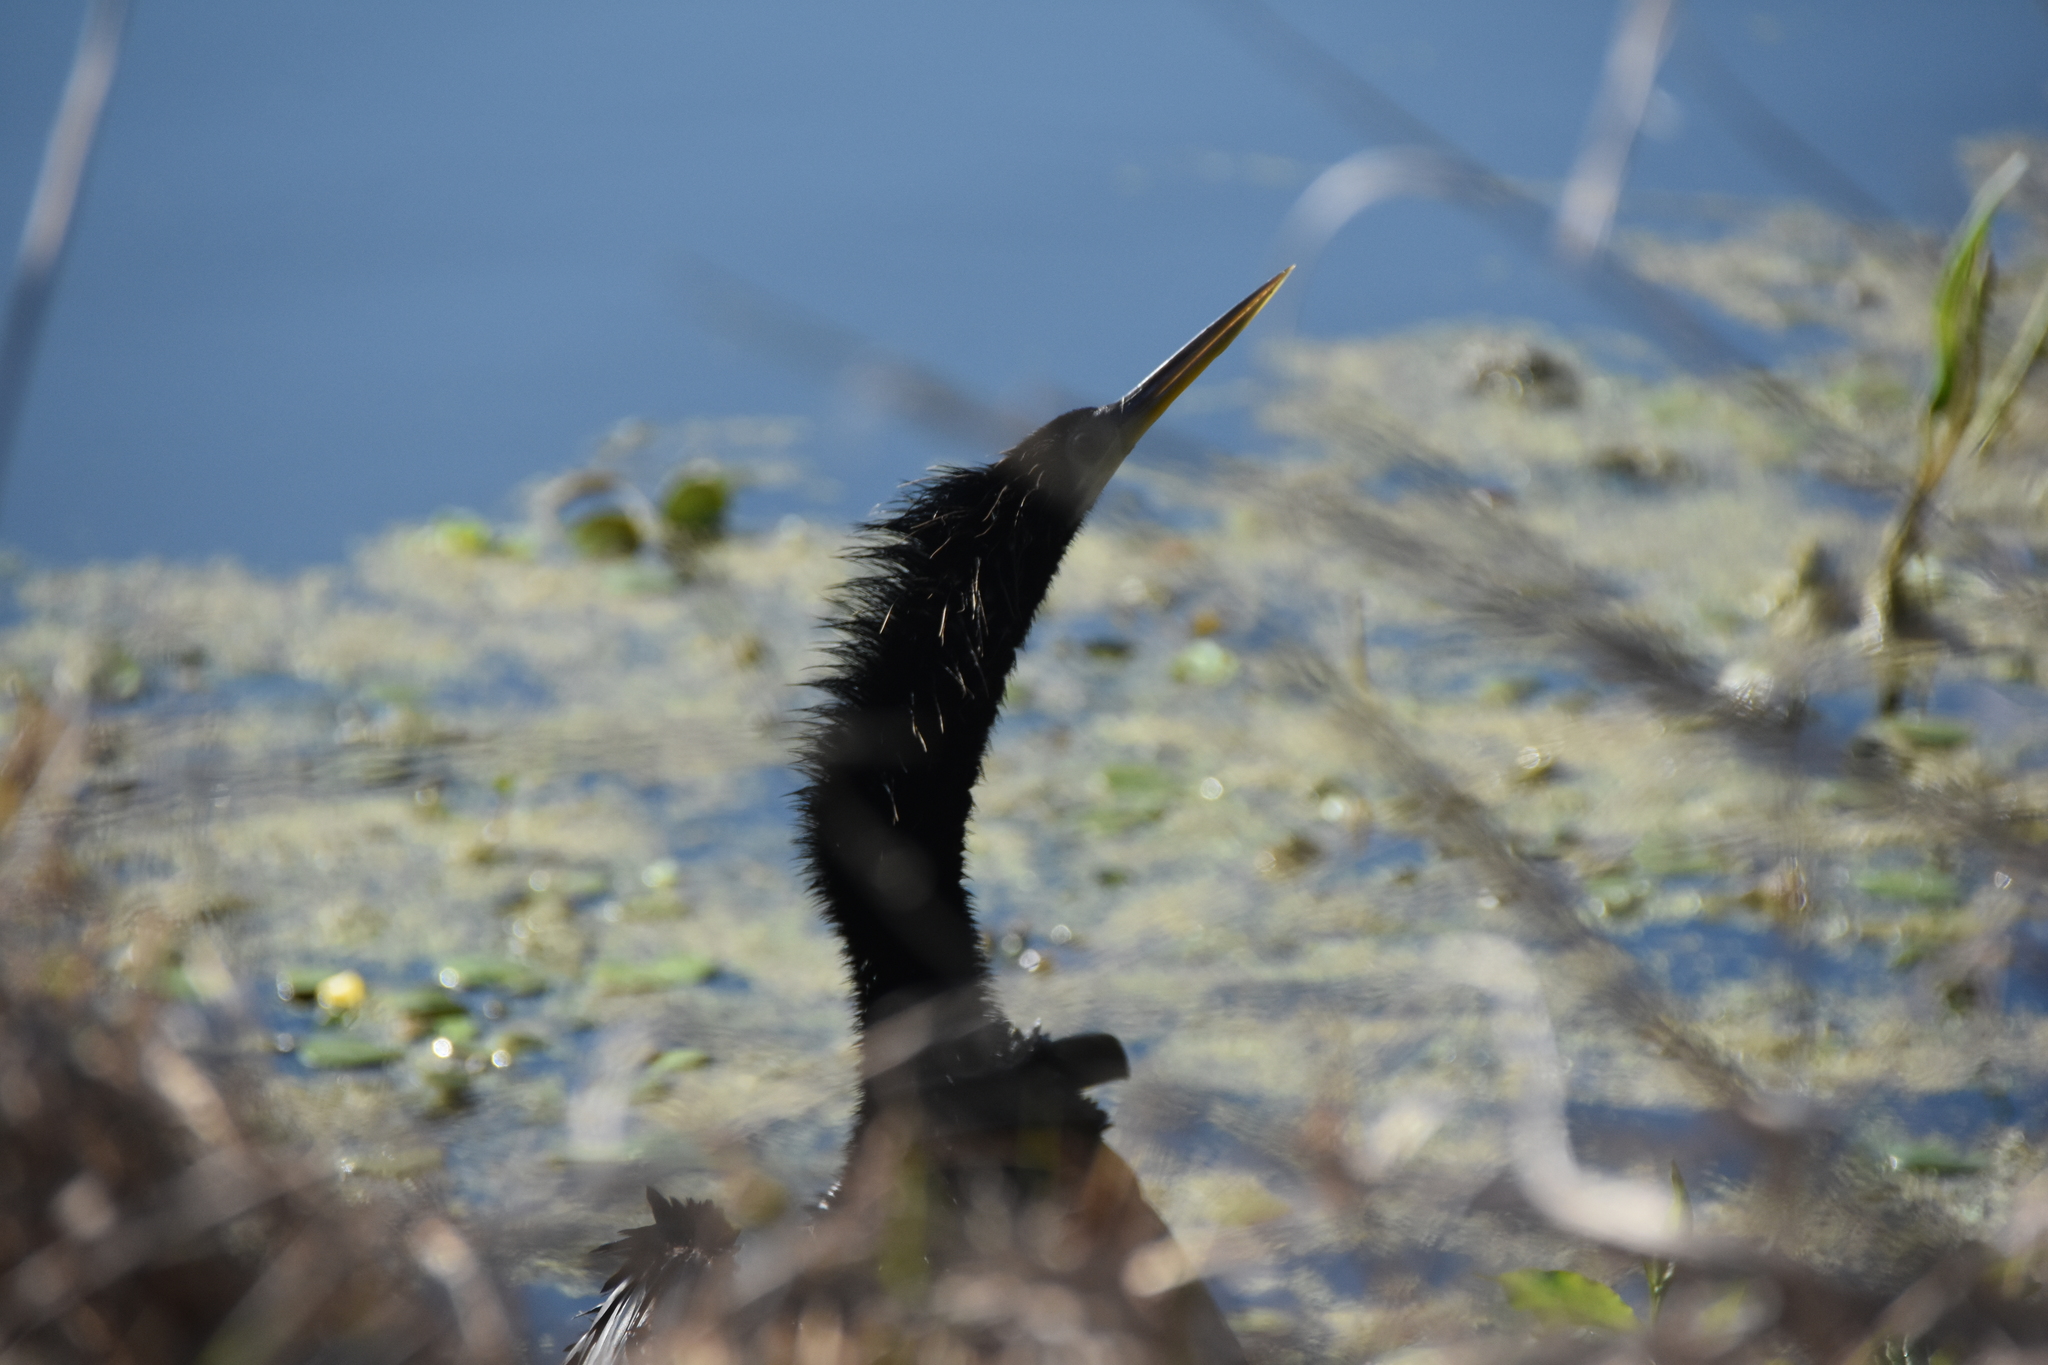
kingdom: Animalia
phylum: Chordata
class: Aves
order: Suliformes
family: Anhingidae
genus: Anhinga
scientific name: Anhinga anhinga
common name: Anhinga
